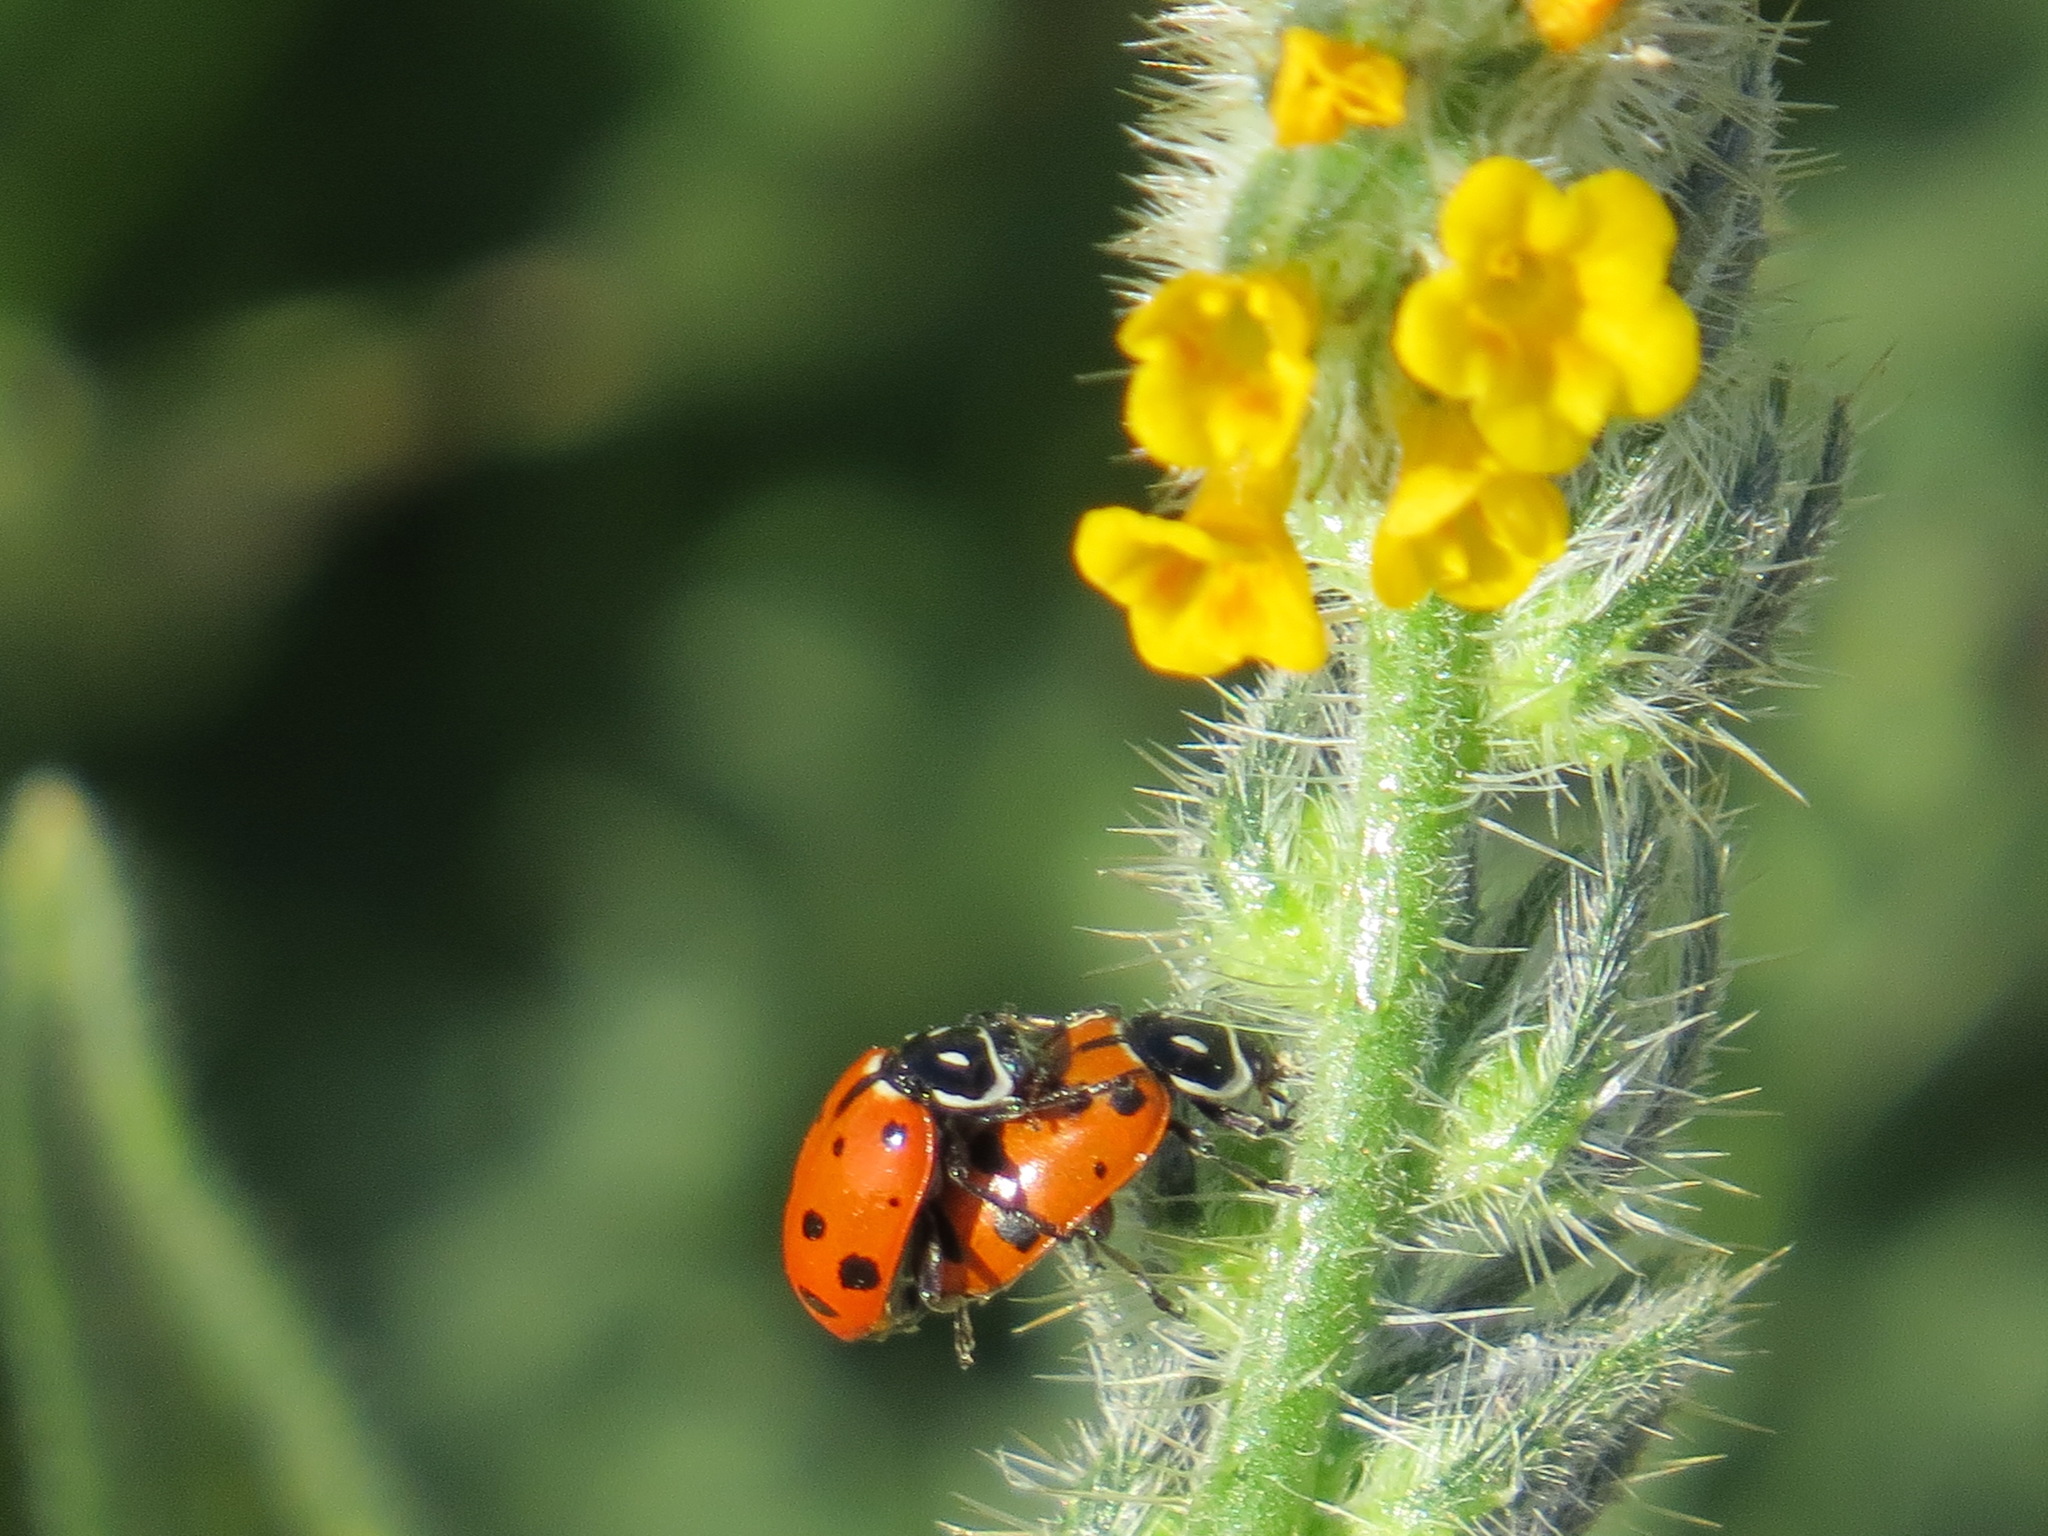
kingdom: Animalia
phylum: Arthropoda
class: Insecta
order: Coleoptera
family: Coccinellidae
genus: Hippodamia
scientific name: Hippodamia convergens
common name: Convergent lady beetle
